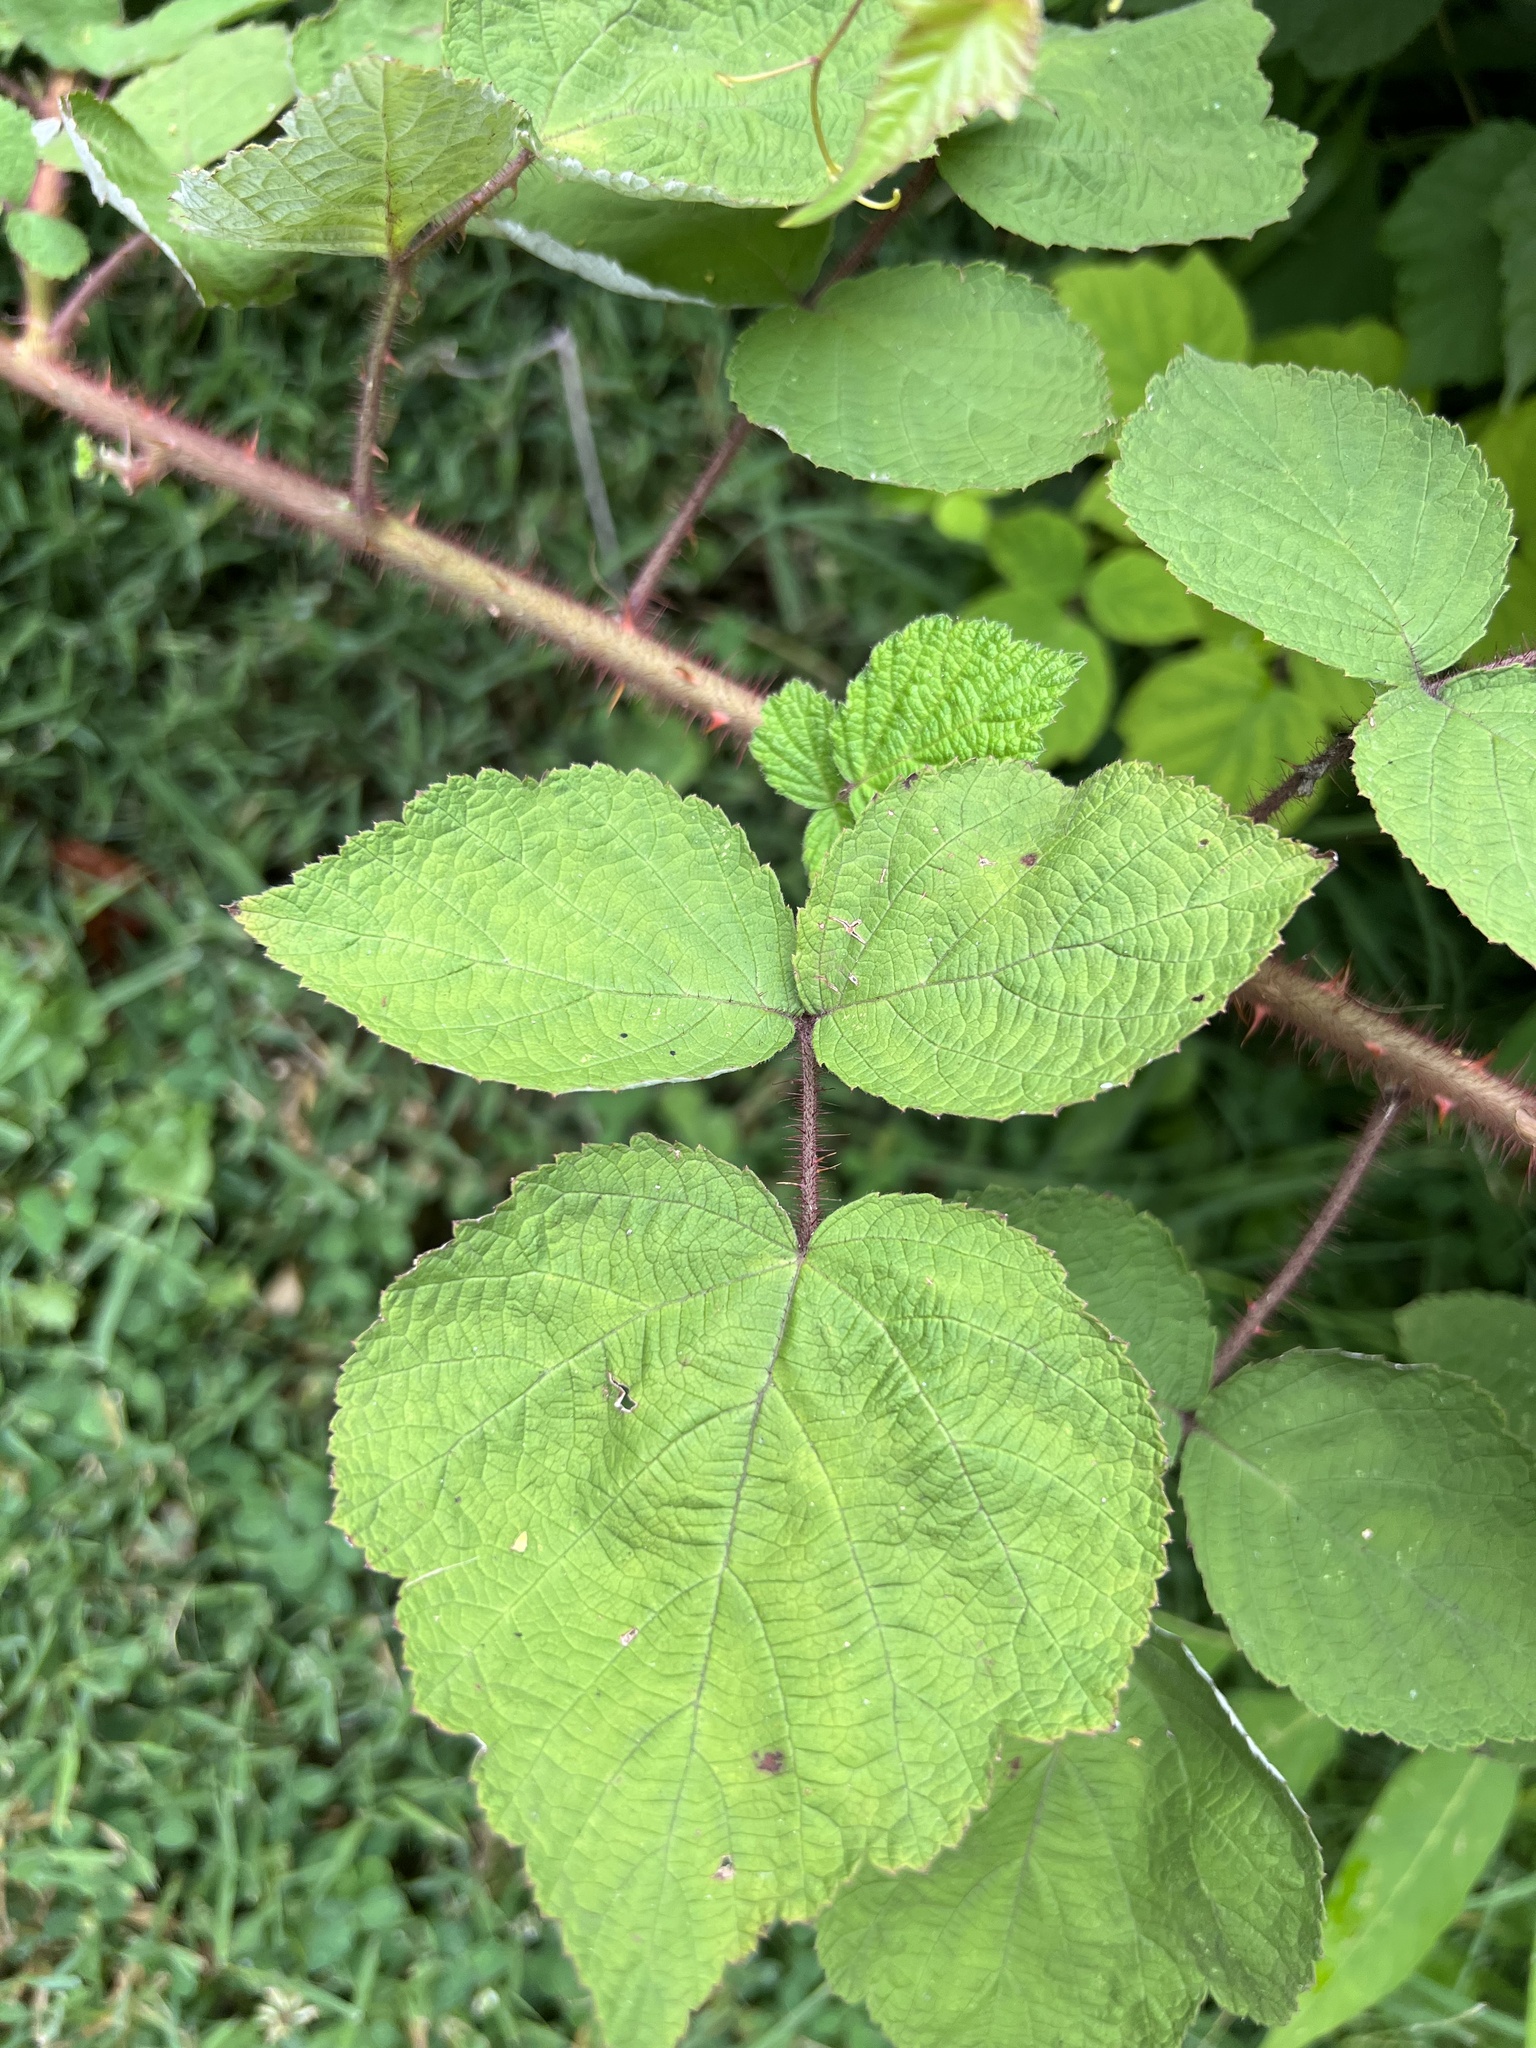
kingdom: Plantae
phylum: Tracheophyta
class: Magnoliopsida
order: Rosales
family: Rosaceae
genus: Rubus
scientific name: Rubus phoenicolasius
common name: Japanese wineberry
